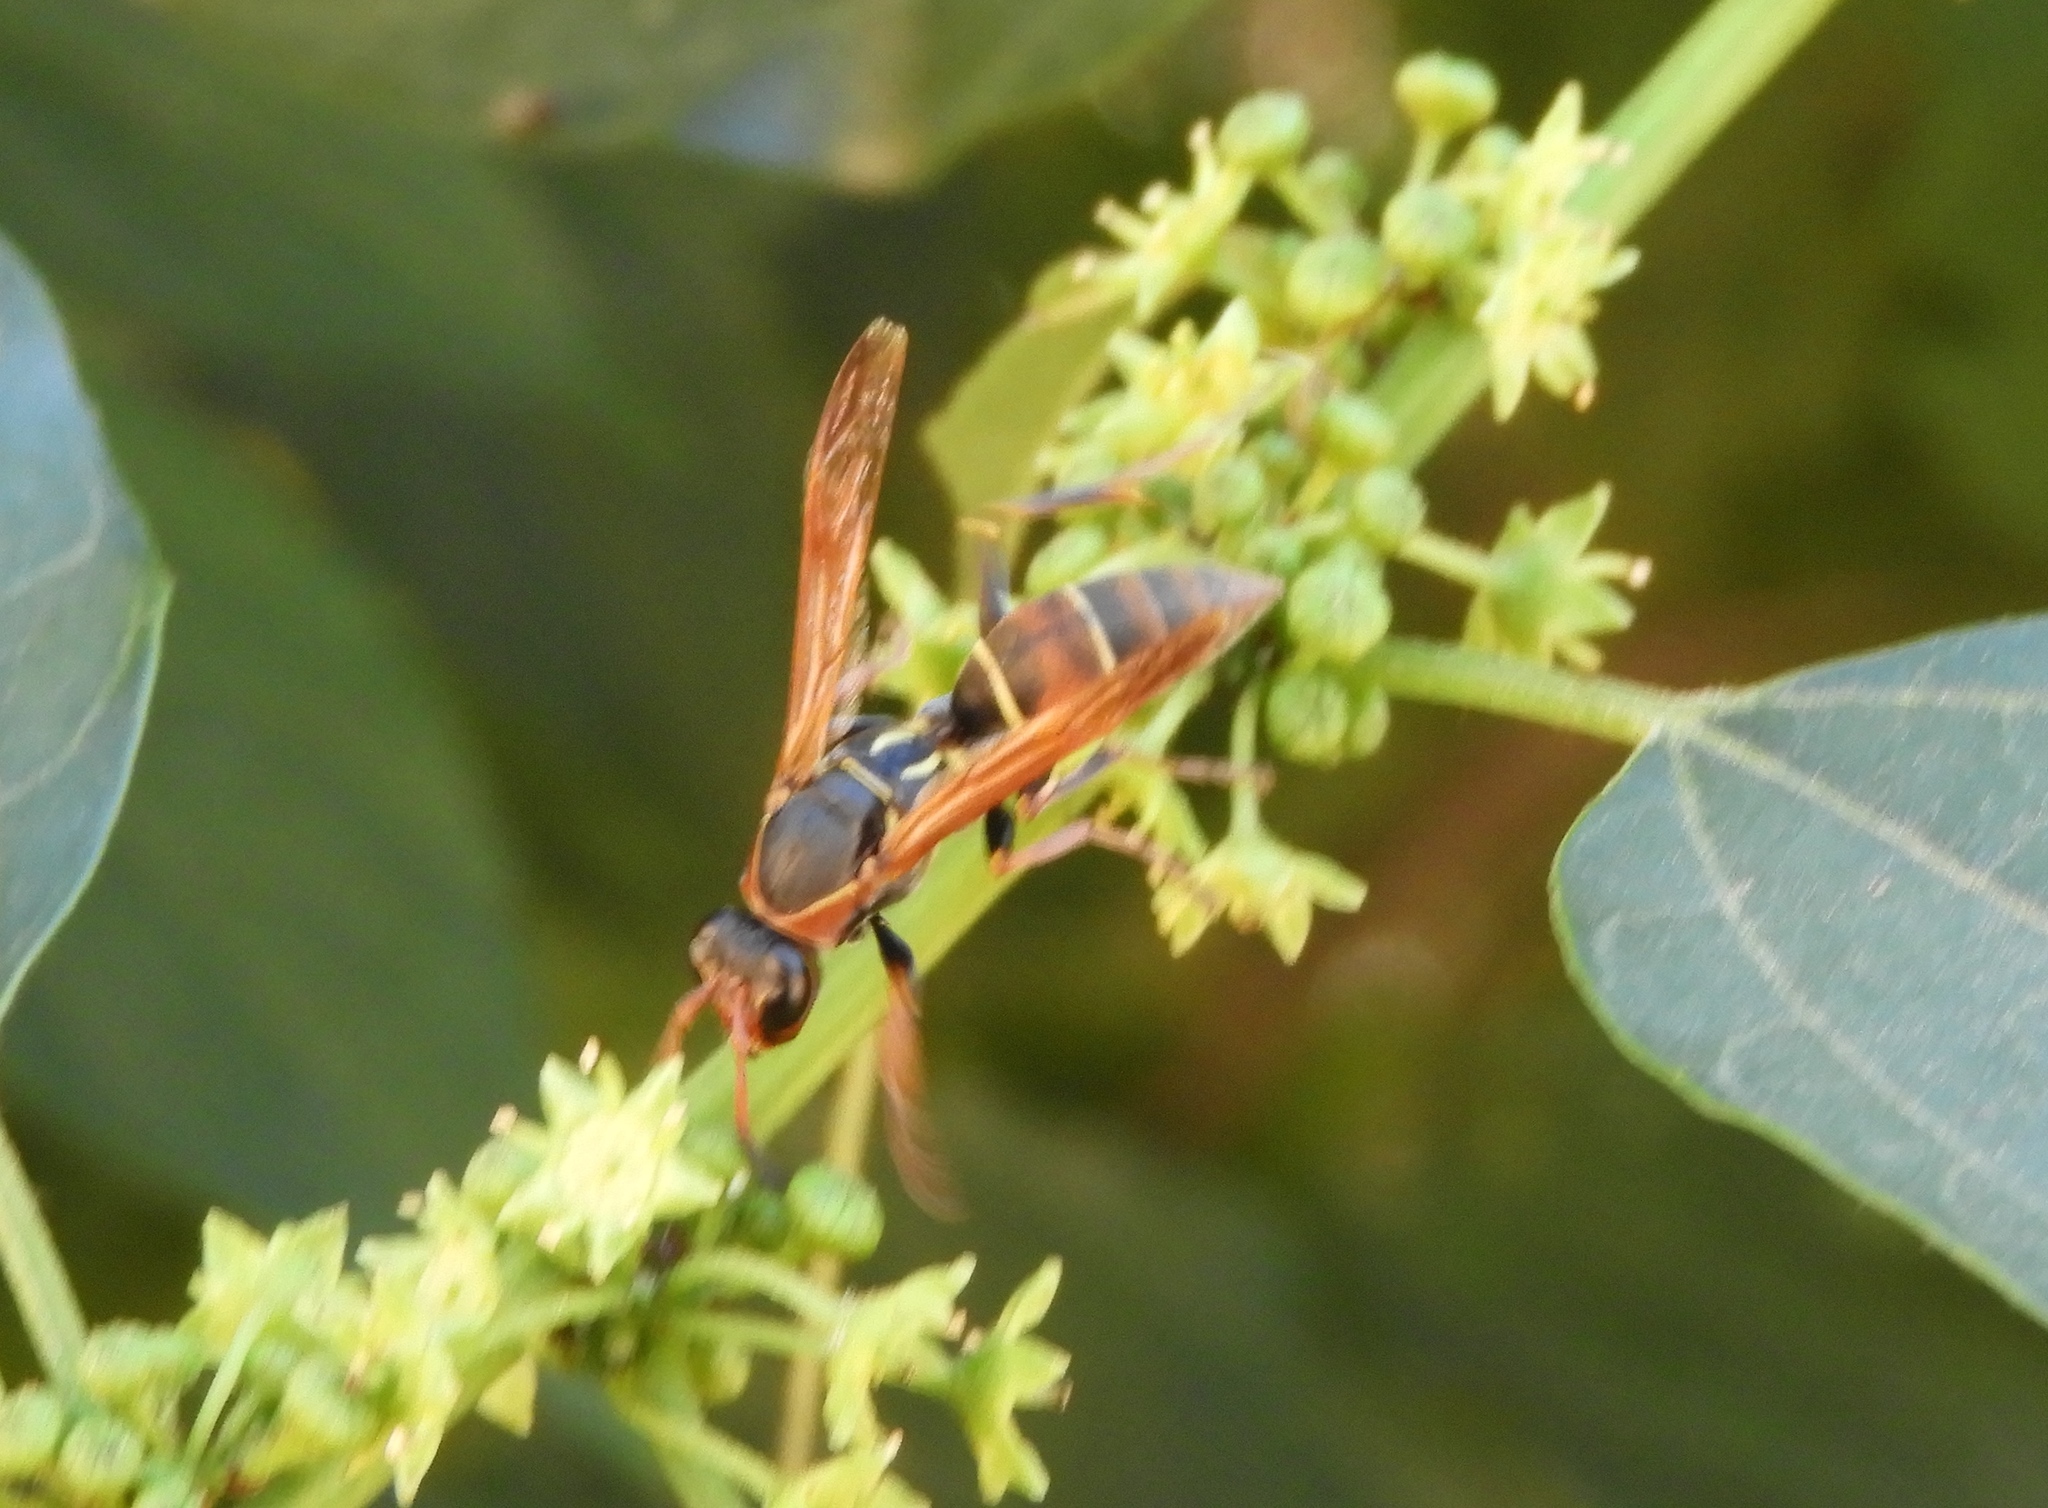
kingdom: Animalia
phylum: Arthropoda
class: Insecta
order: Hymenoptera
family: Eumenidae
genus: Polistes
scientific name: Polistes pacificus
